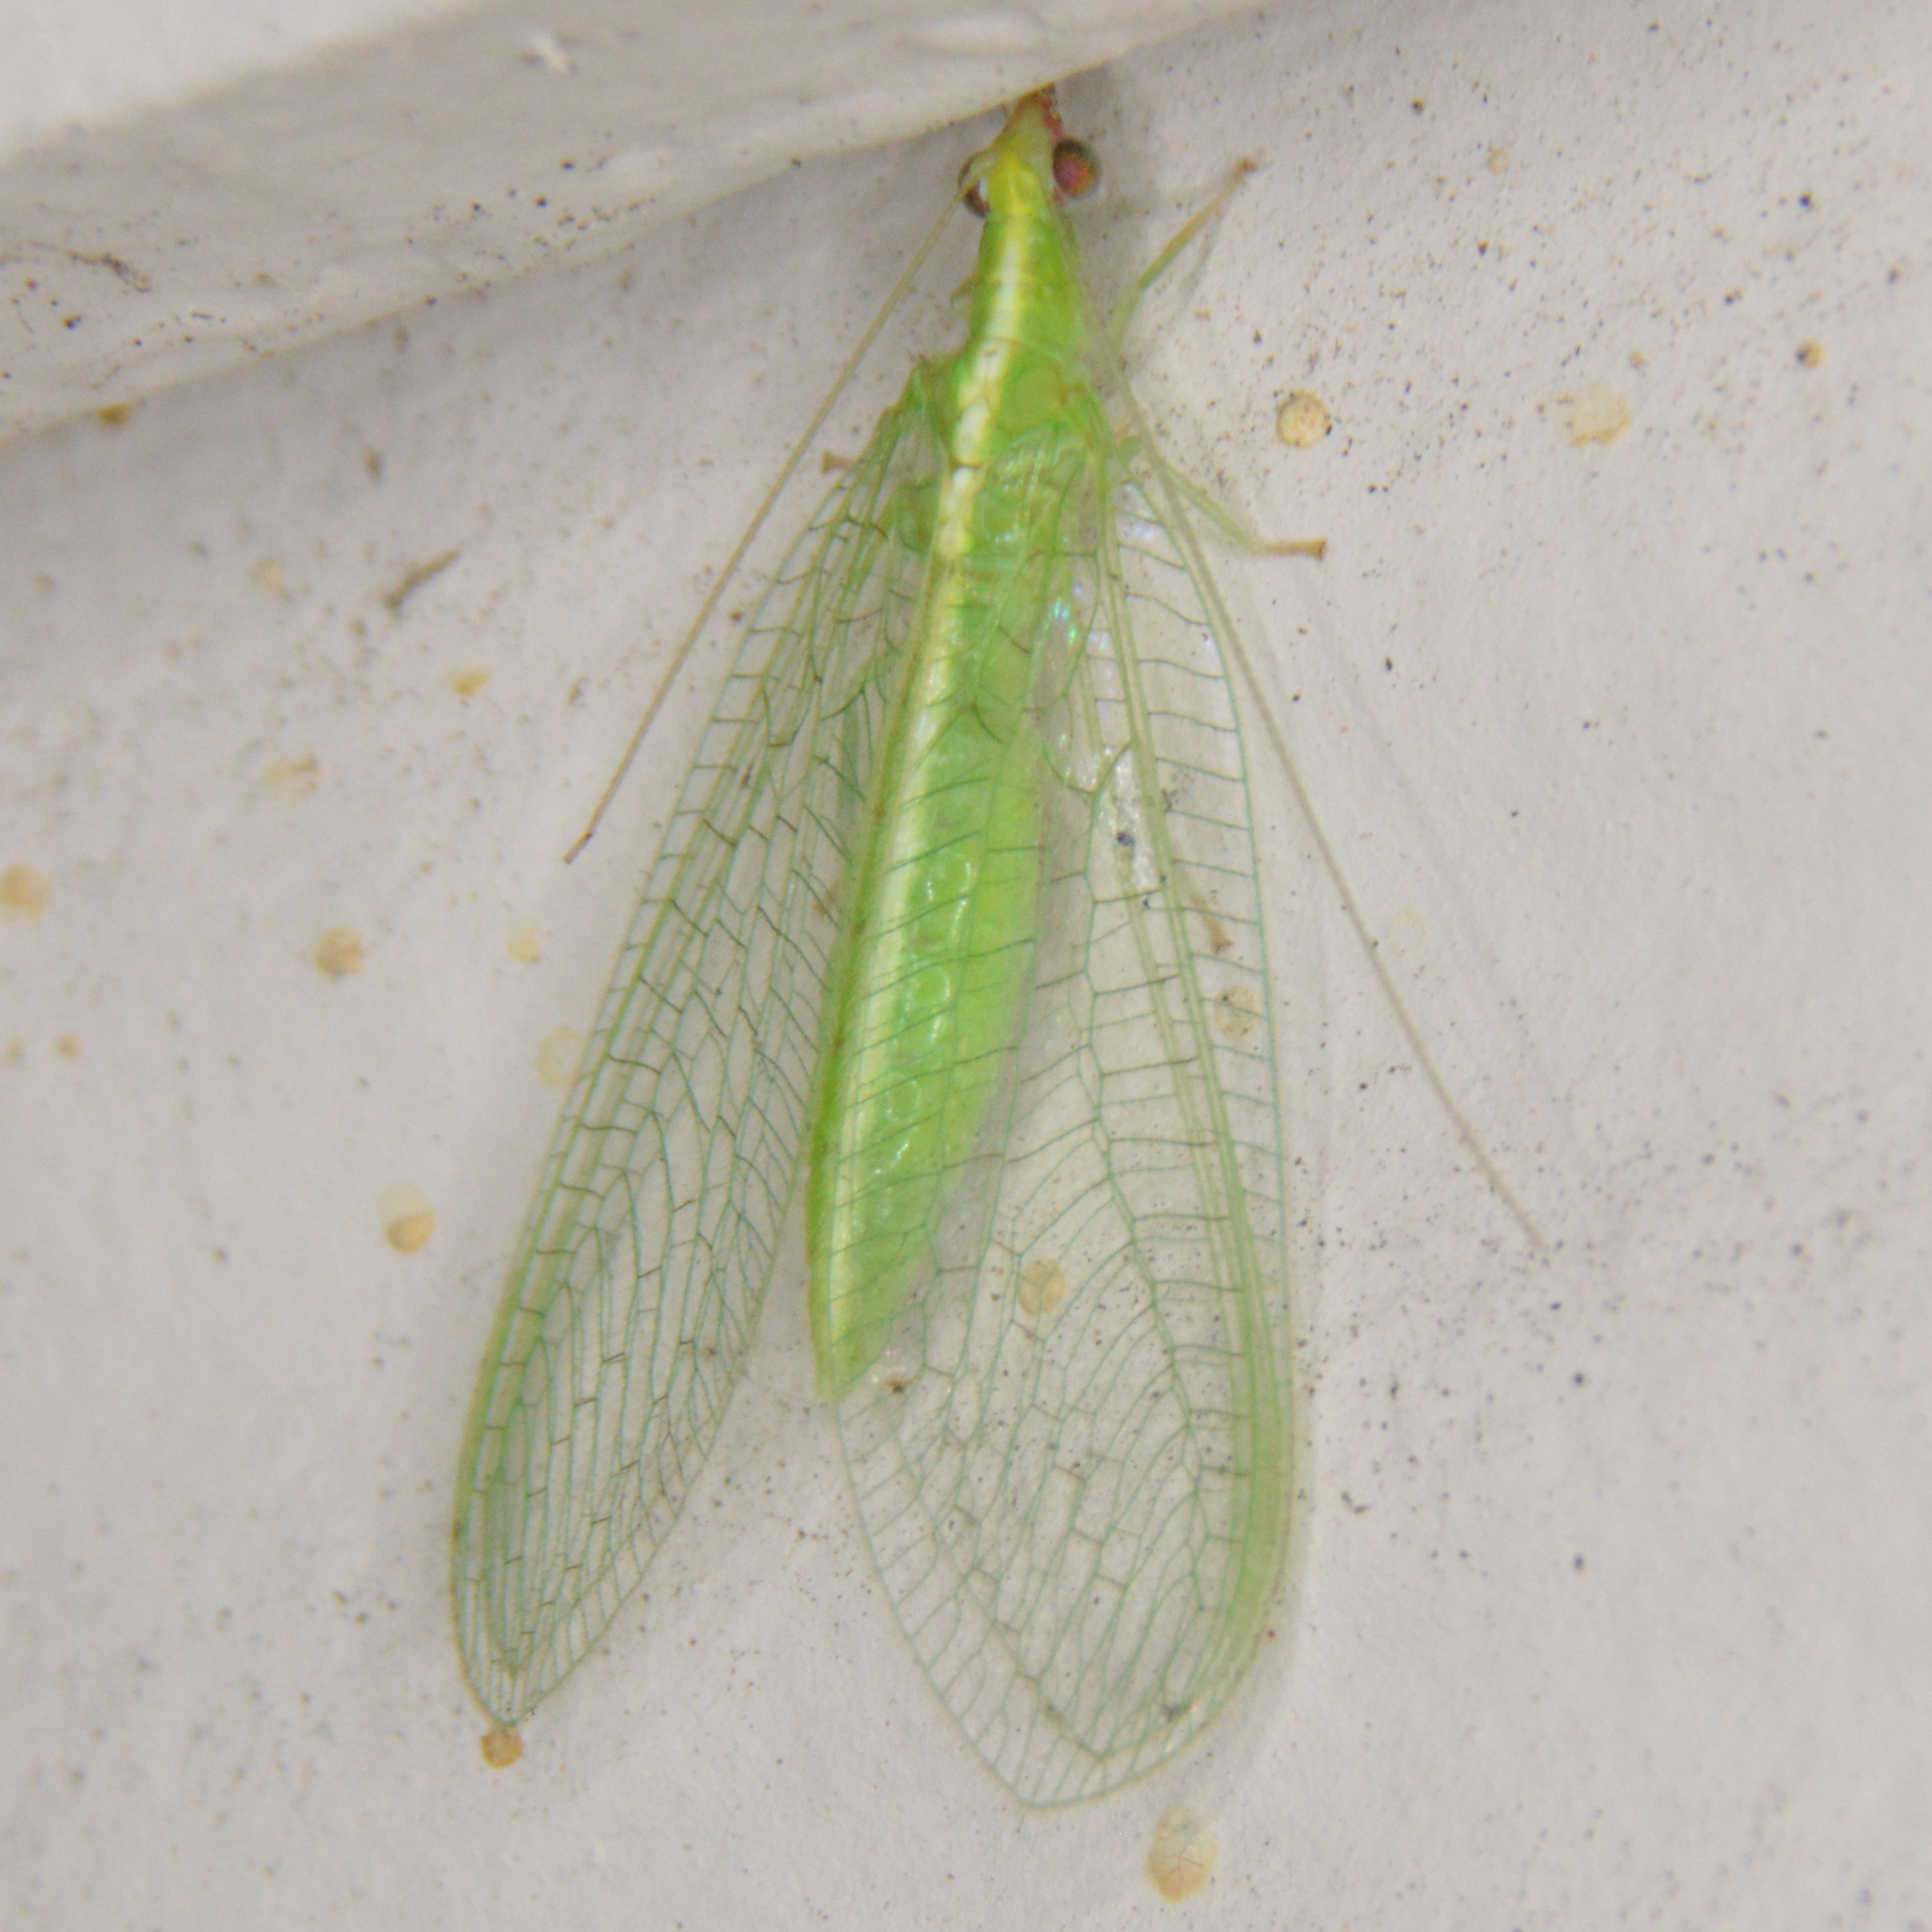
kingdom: Animalia
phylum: Arthropoda
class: Insecta
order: Neuroptera
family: Chrysopidae
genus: Chrysoperla
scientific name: Chrysoperla rufilabris
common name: Red-lipped green lacewing
